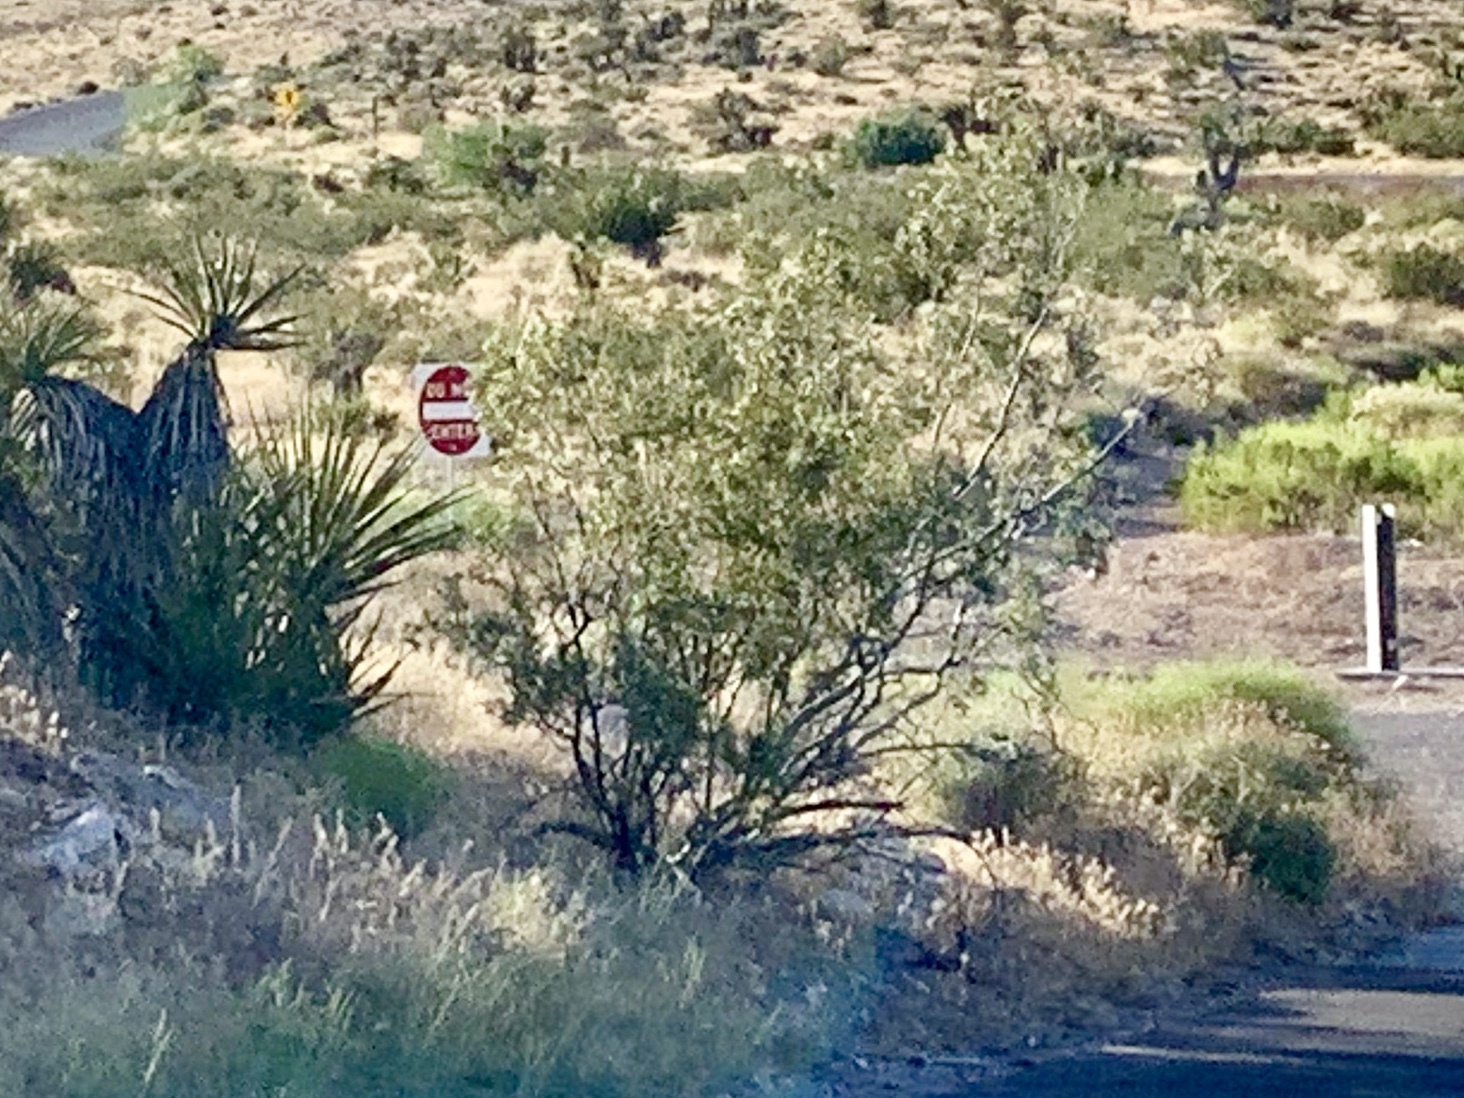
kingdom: Plantae
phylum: Tracheophyta
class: Magnoliopsida
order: Zygophyllales
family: Zygophyllaceae
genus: Larrea
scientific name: Larrea tridentata
